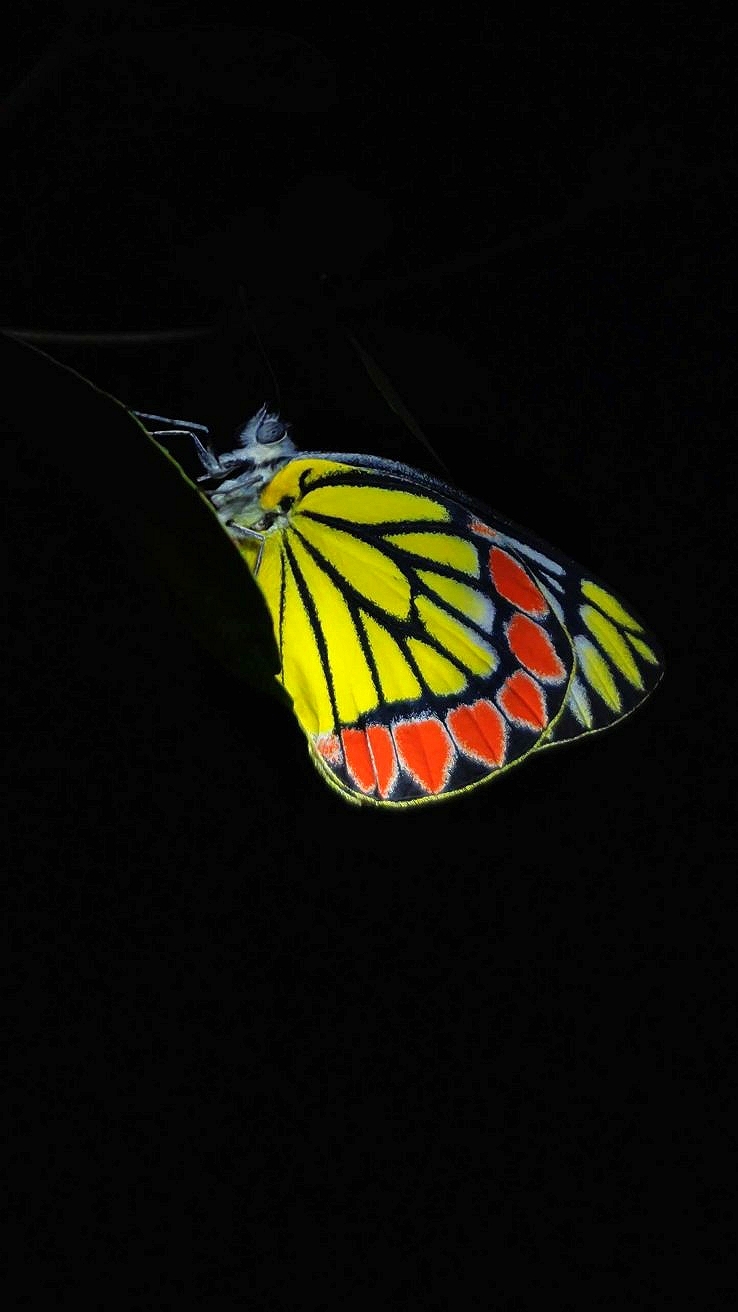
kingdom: Animalia
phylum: Arthropoda
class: Insecta
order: Lepidoptera
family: Pieridae
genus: Delias
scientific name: Delias eucharis
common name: Common jezebel
